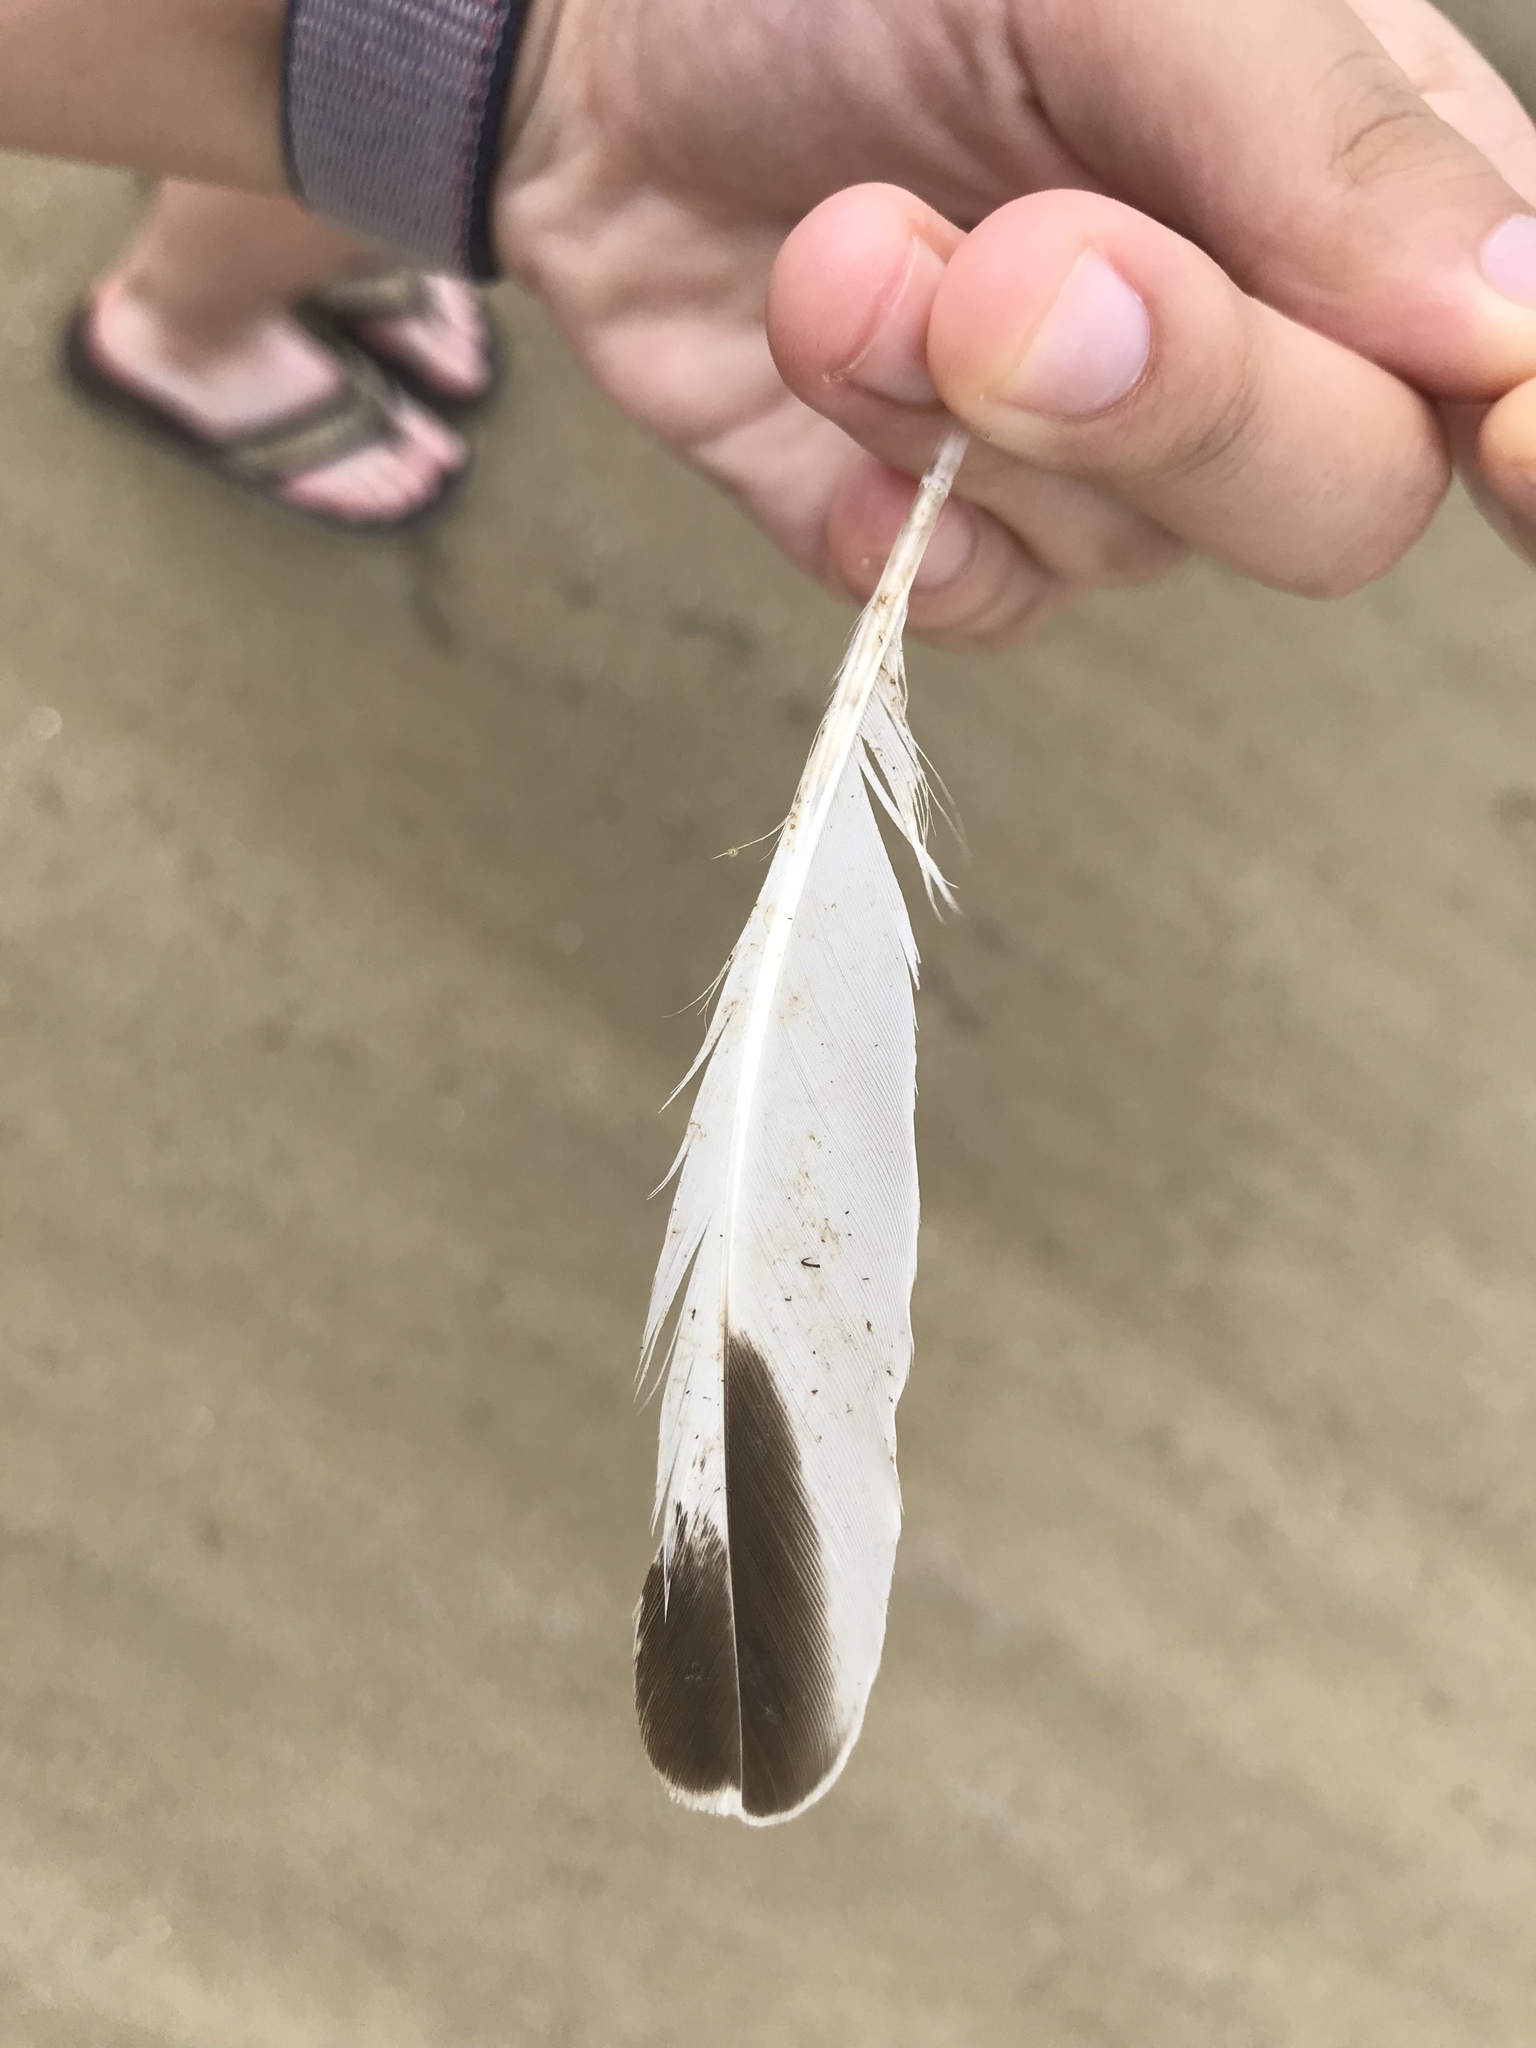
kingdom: Animalia
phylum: Chordata
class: Aves
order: Charadriiformes
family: Scolopacidae
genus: Tringa
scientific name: Tringa semipalmata
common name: Willet
